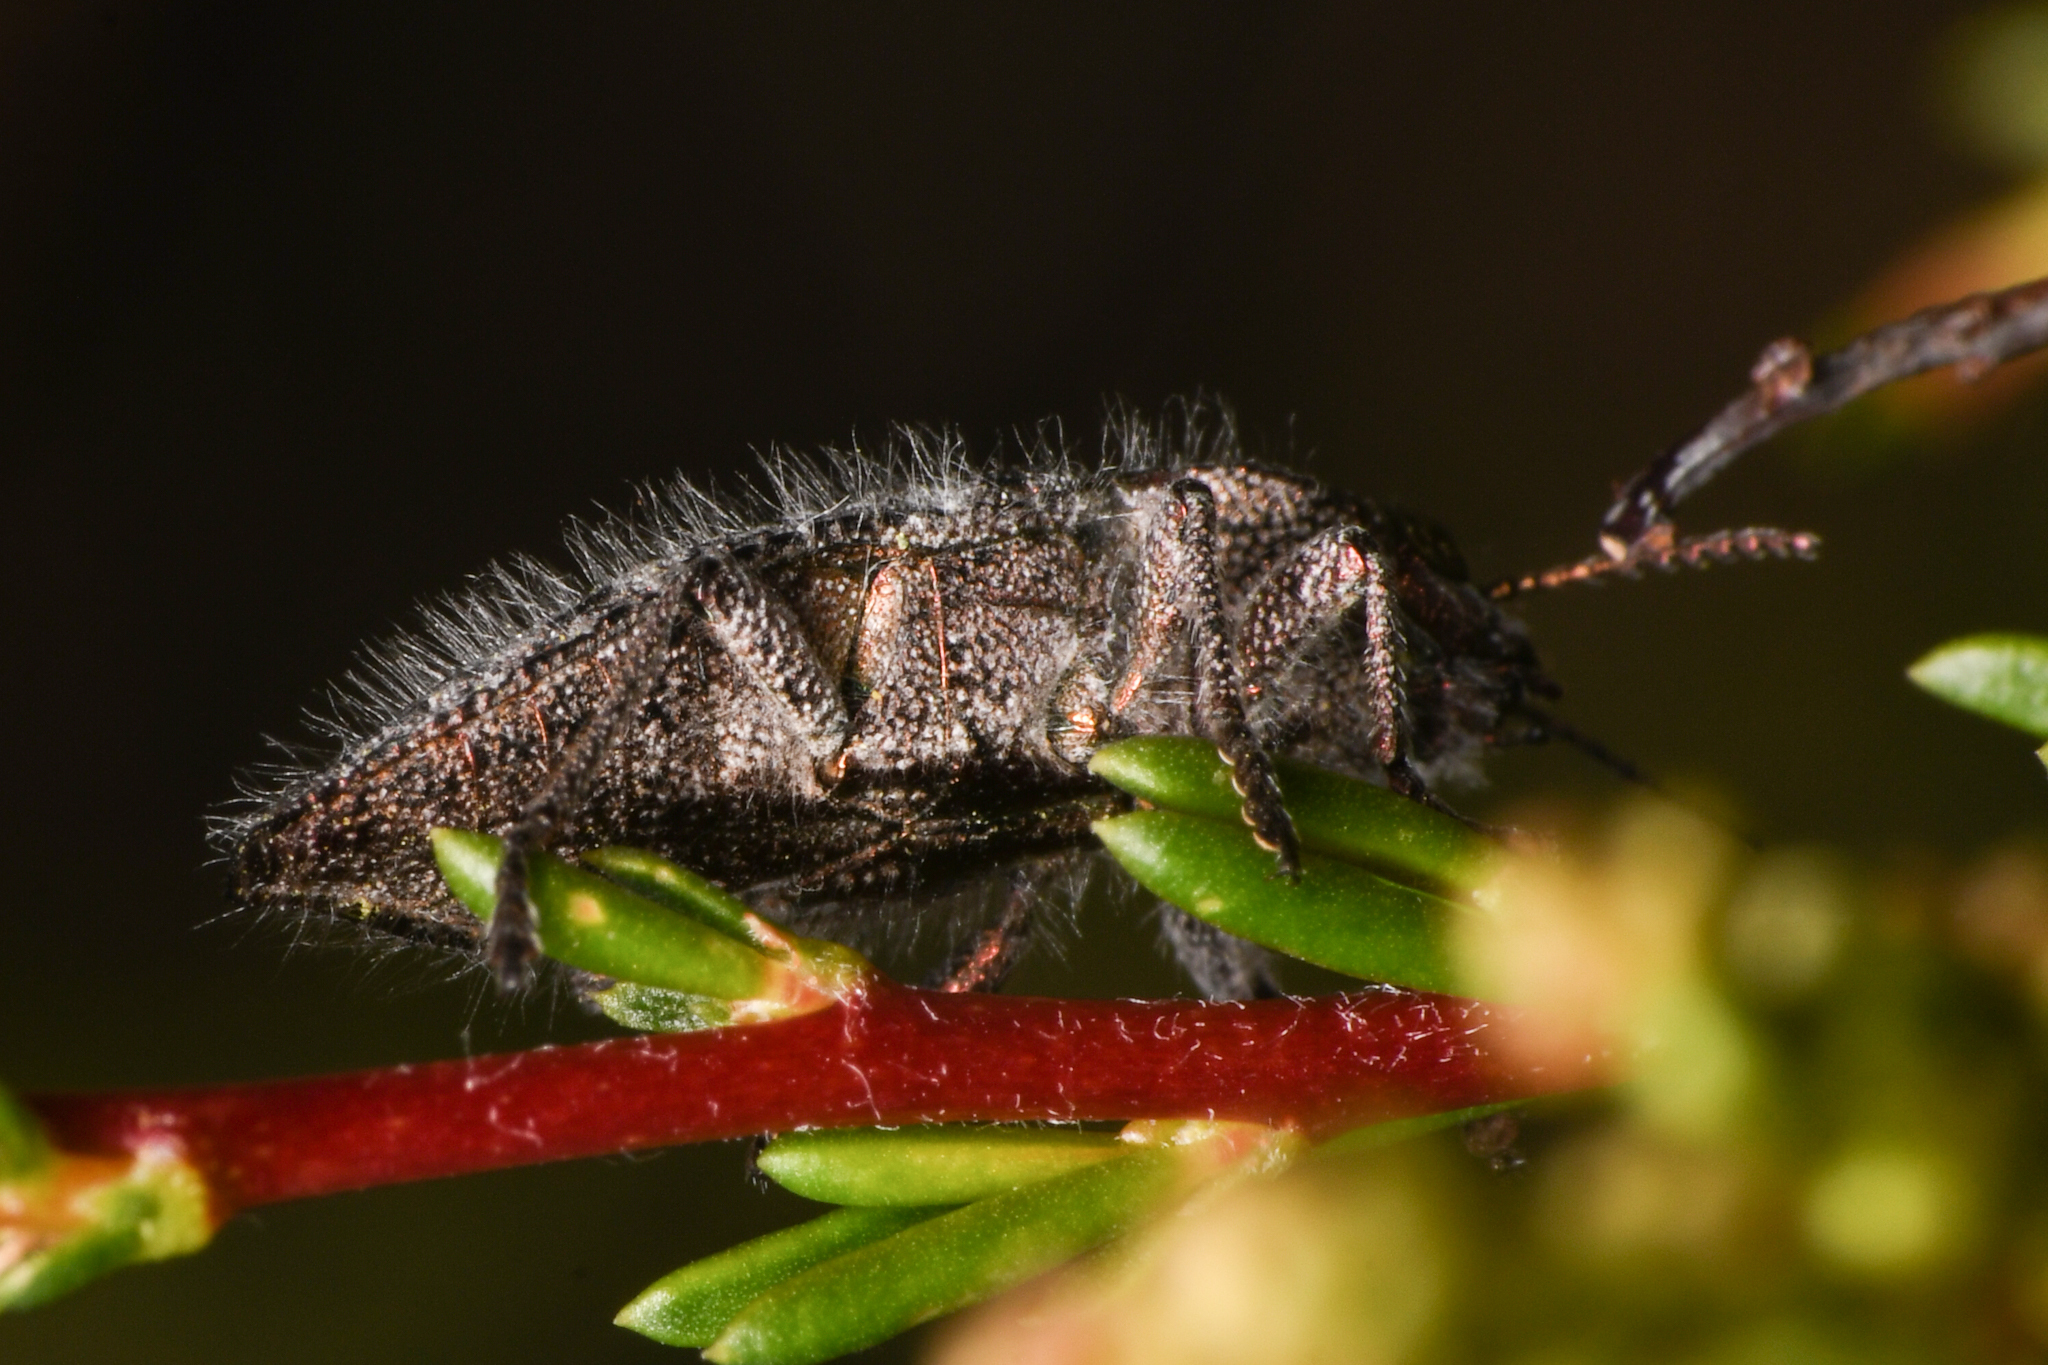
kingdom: Animalia
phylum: Arthropoda
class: Insecta
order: Coleoptera
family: Buprestidae
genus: Dicerca
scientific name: Dicerca hornii
